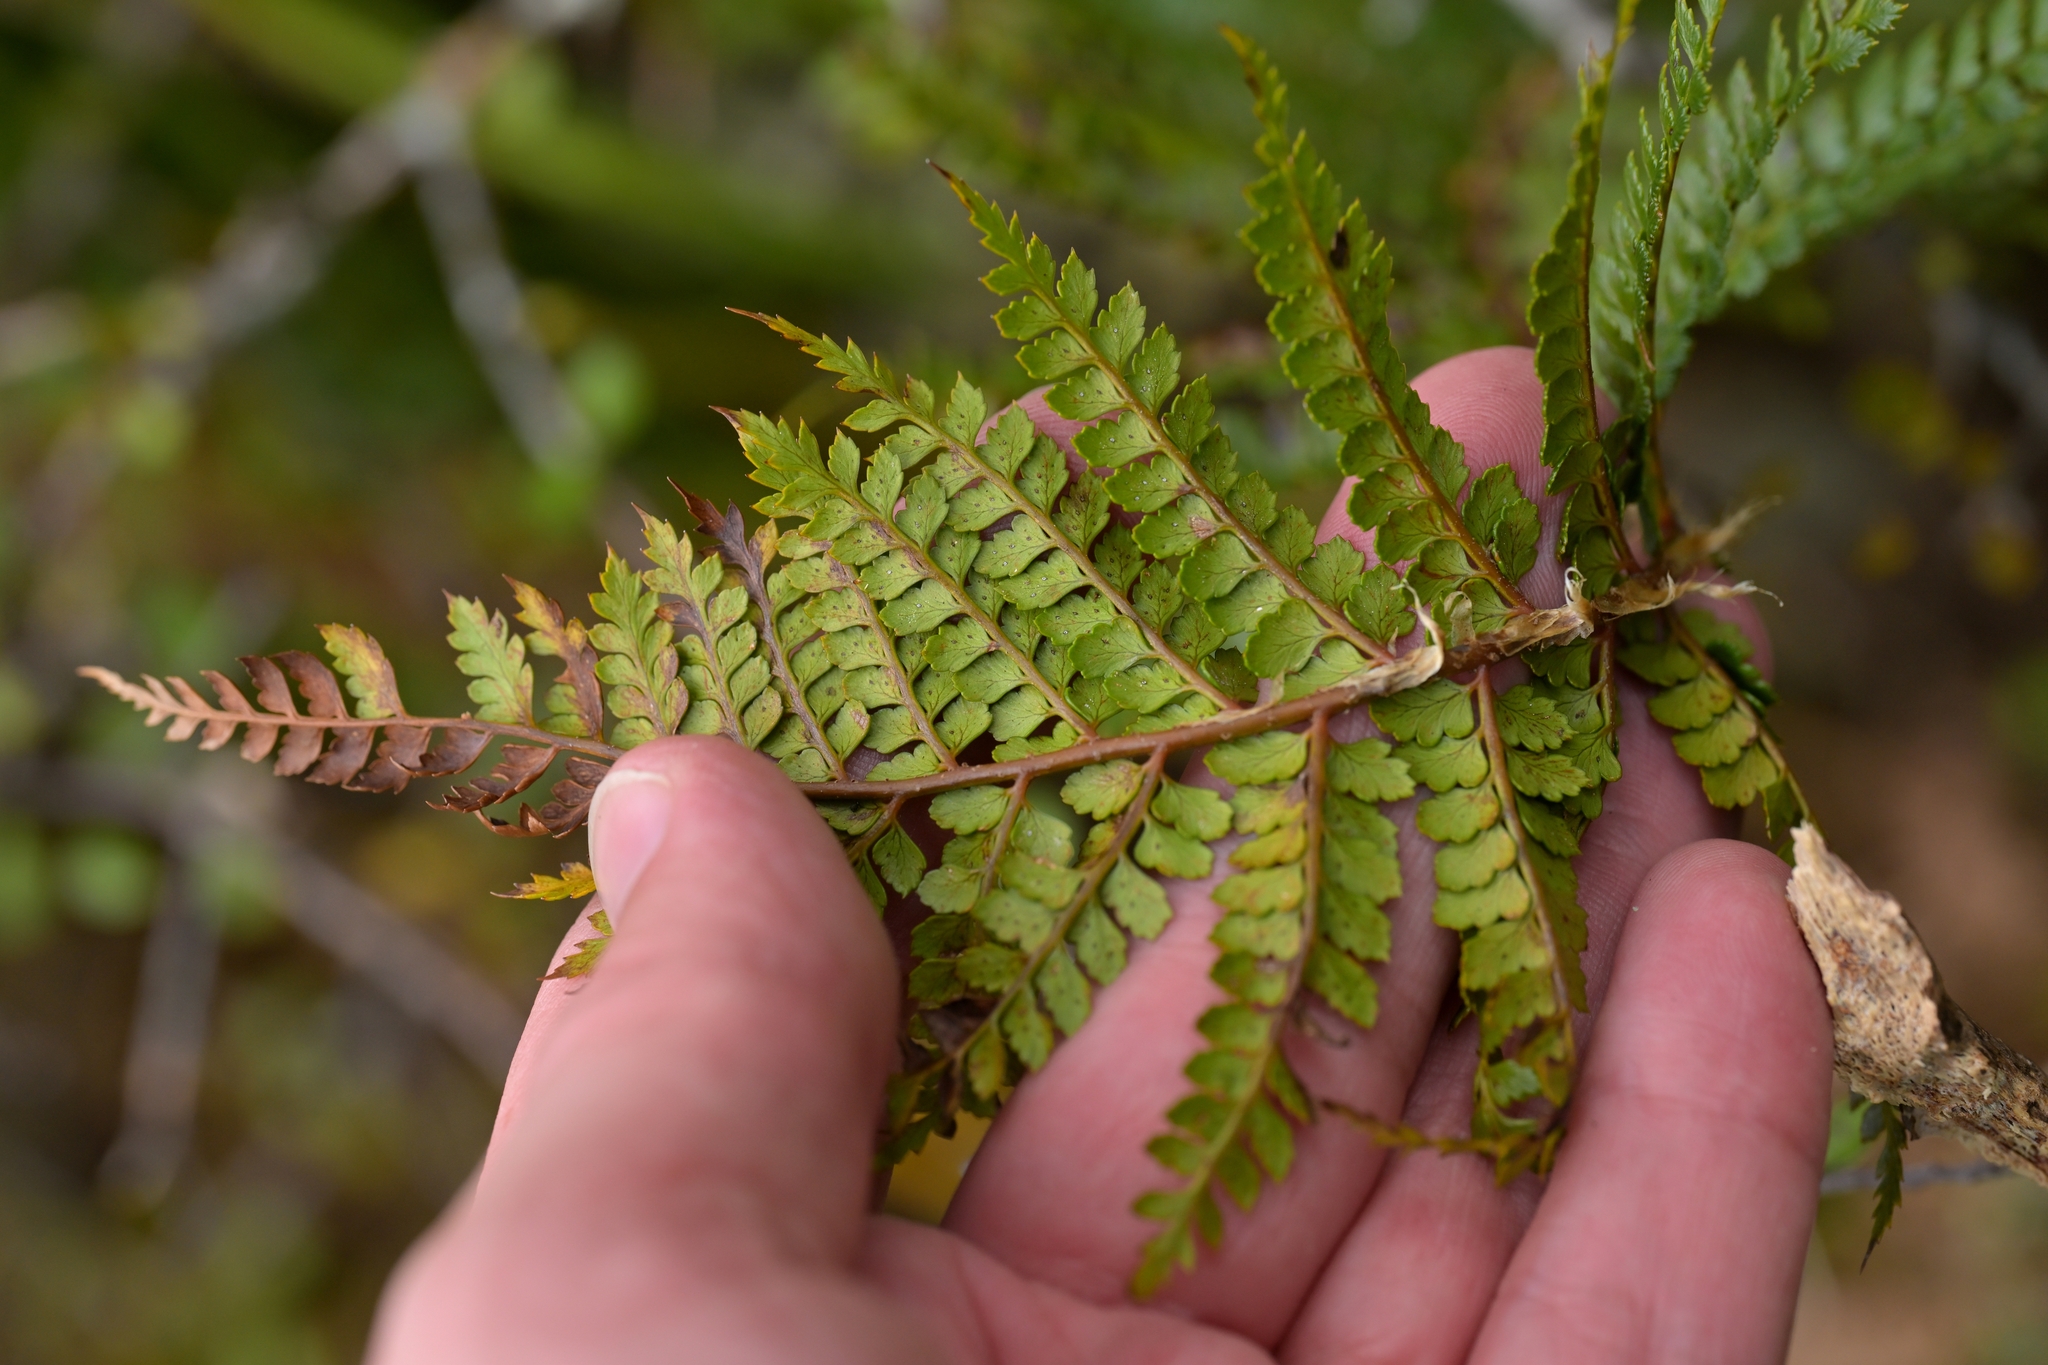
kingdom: Plantae
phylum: Tracheophyta
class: Polypodiopsida
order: Polypodiales
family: Dryopteridaceae
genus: Polystichum
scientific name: Polystichum vestitum
